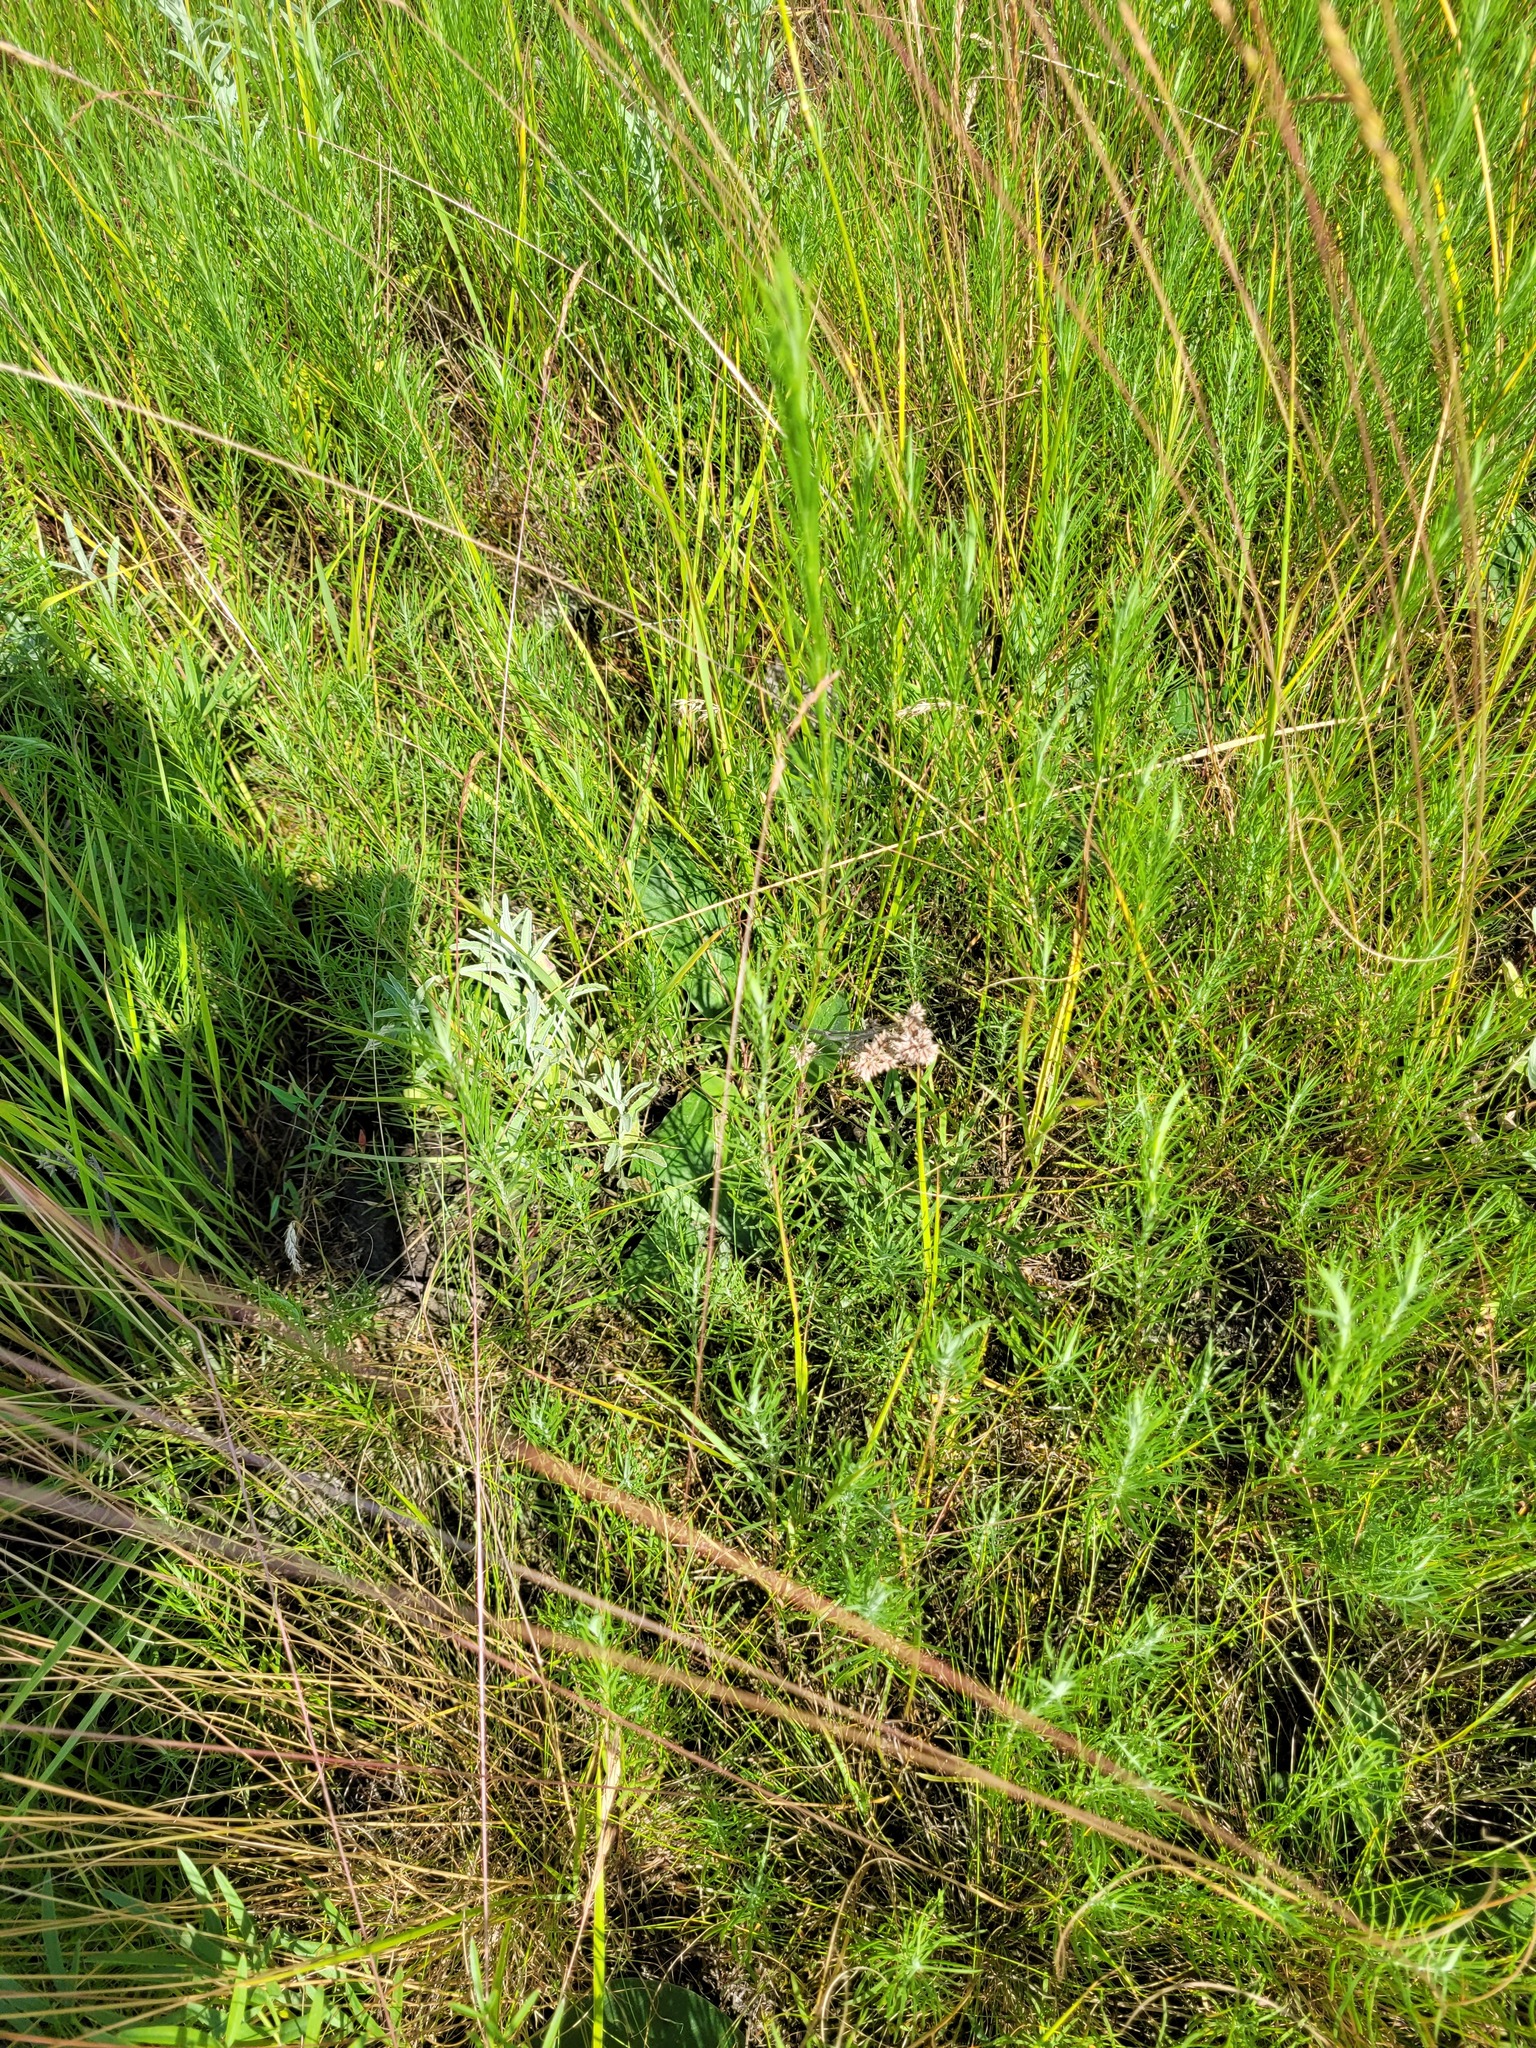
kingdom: Plantae
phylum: Tracheophyta
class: Magnoliopsida
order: Asterales
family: Asteraceae
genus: Galatella
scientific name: Galatella angustissima
